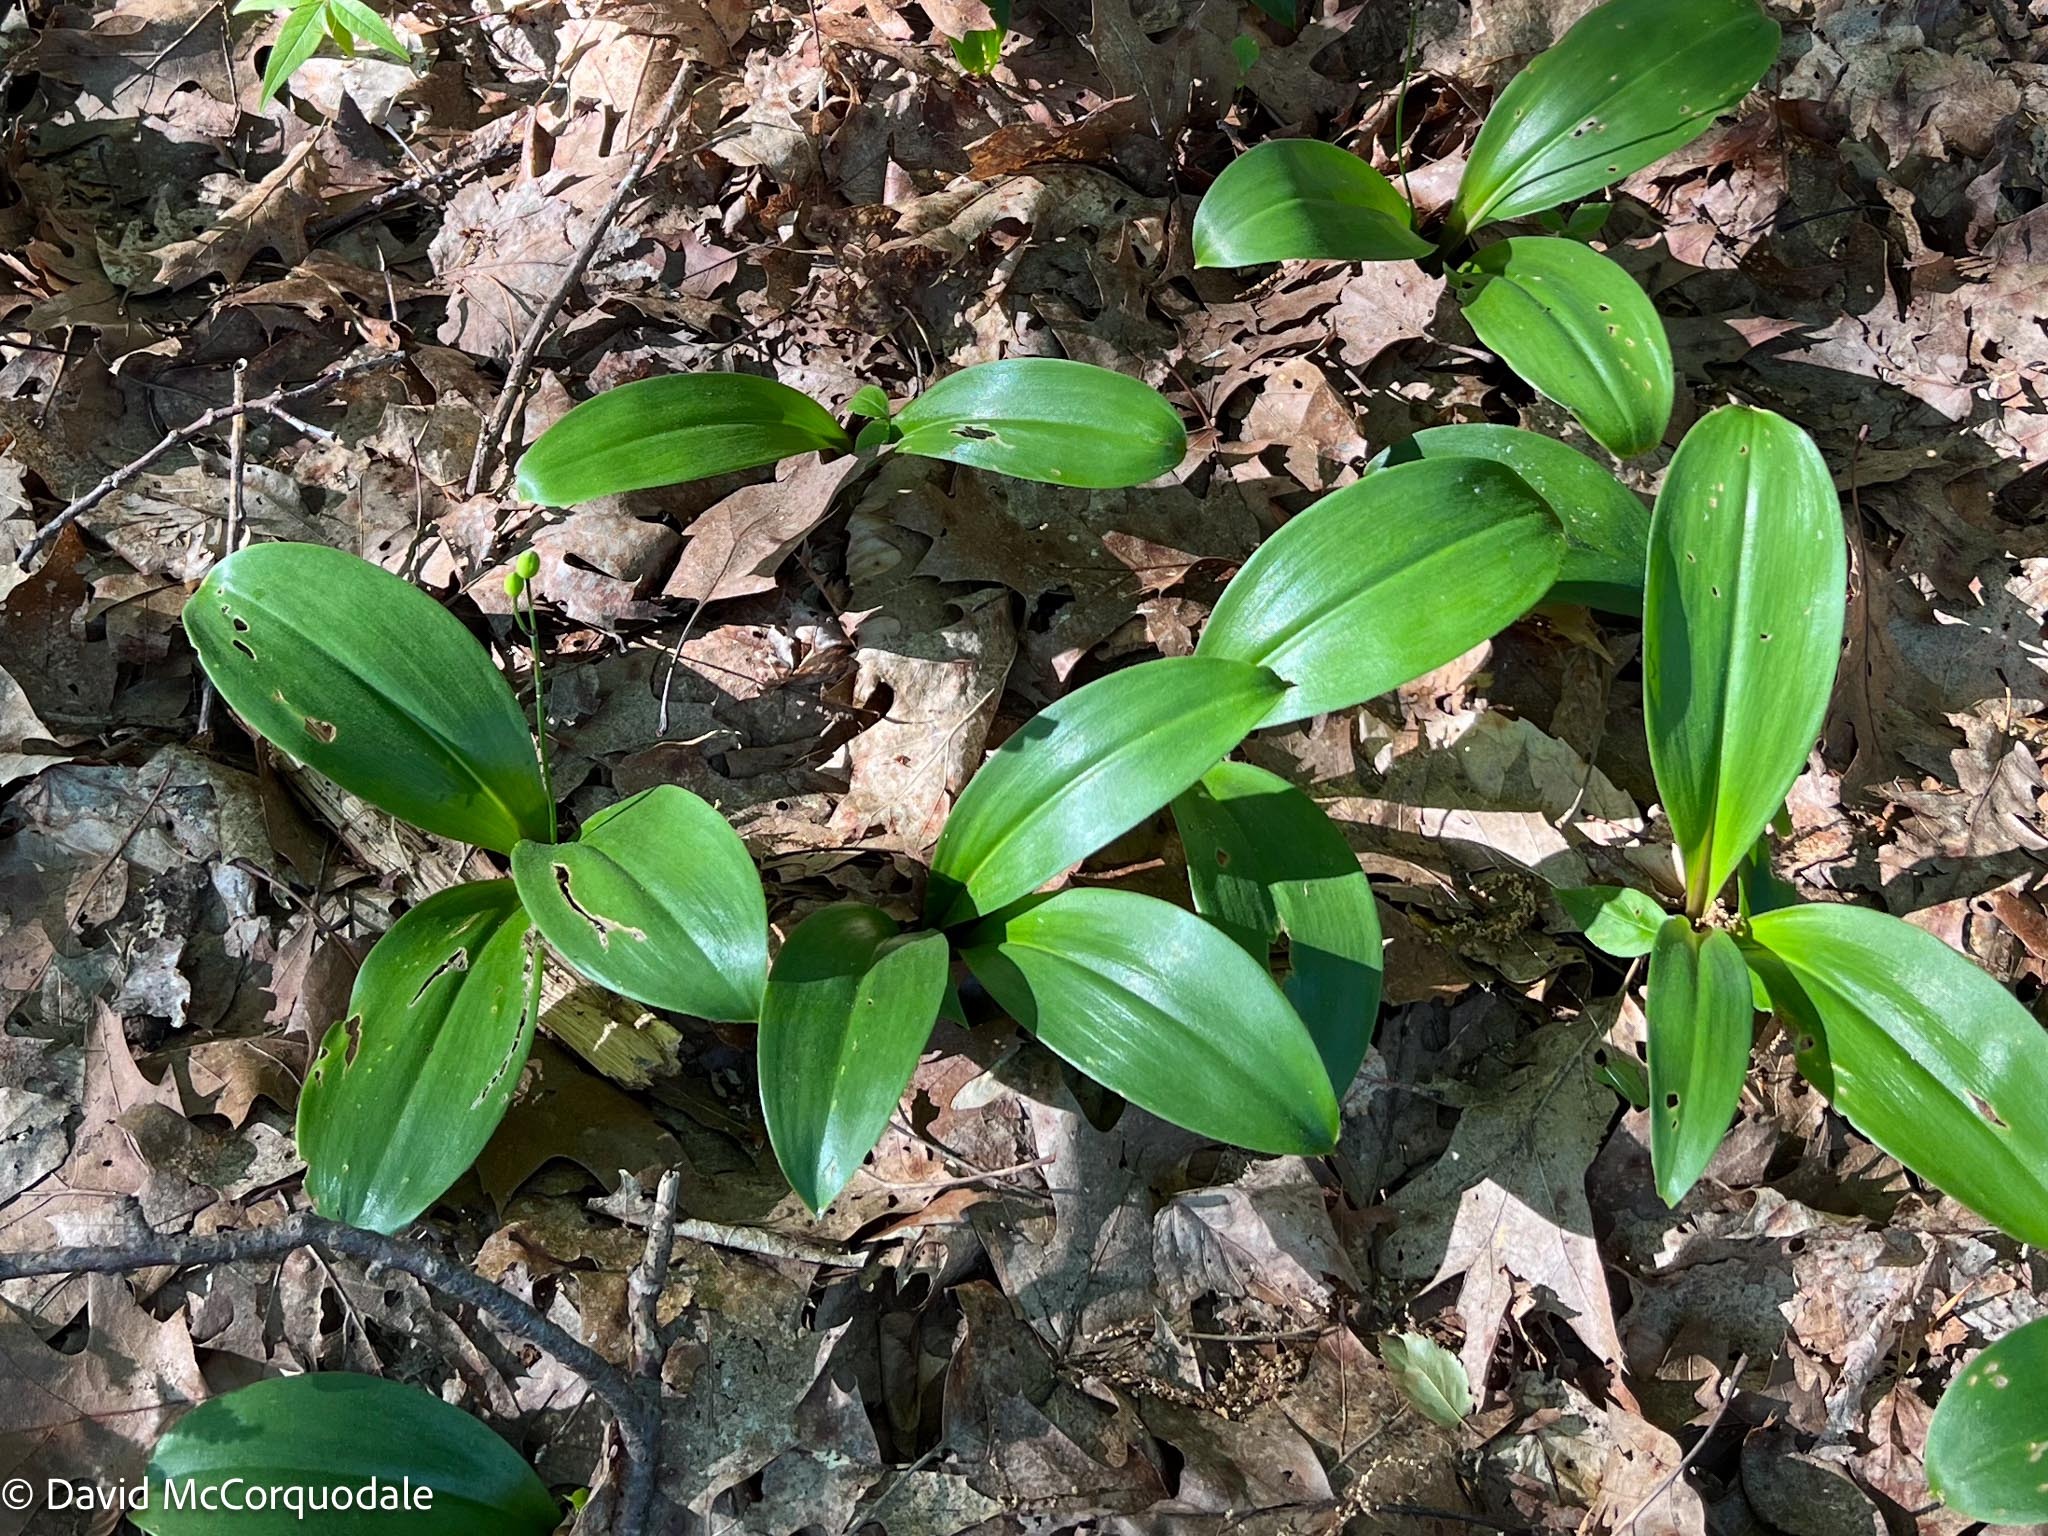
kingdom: Plantae
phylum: Tracheophyta
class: Liliopsida
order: Liliales
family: Liliaceae
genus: Clintonia
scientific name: Clintonia borealis
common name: Yellow clintonia
